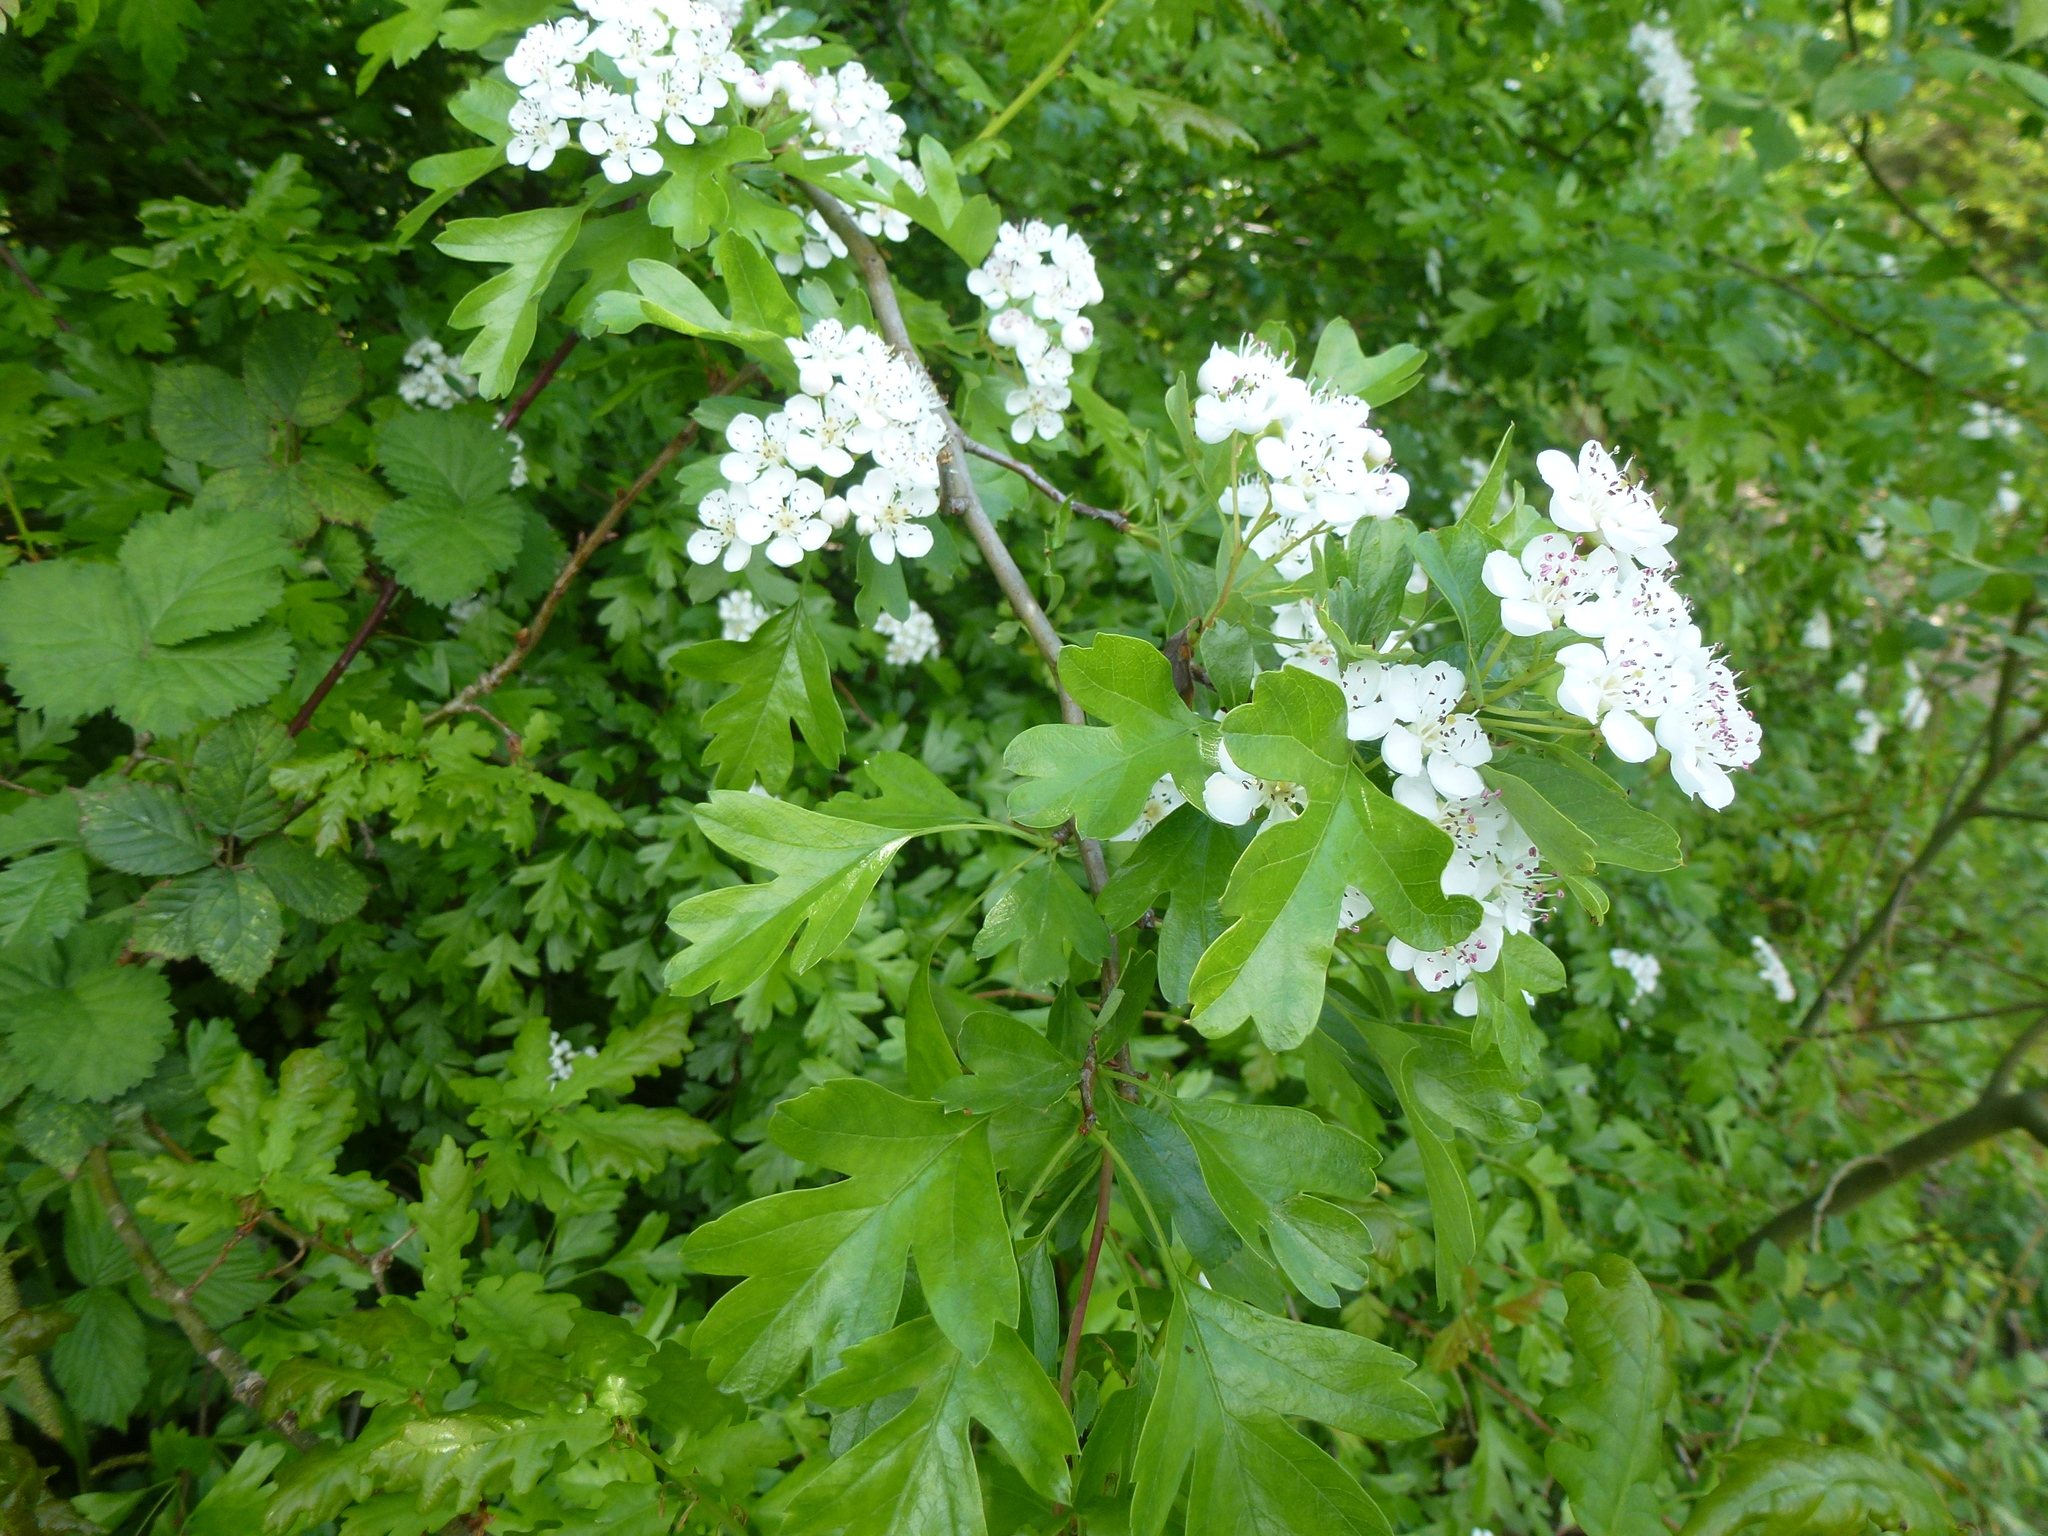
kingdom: Plantae
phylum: Tracheophyta
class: Magnoliopsida
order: Rosales
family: Rosaceae
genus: Crataegus
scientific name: Crataegus monogyna
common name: Hawthorn
